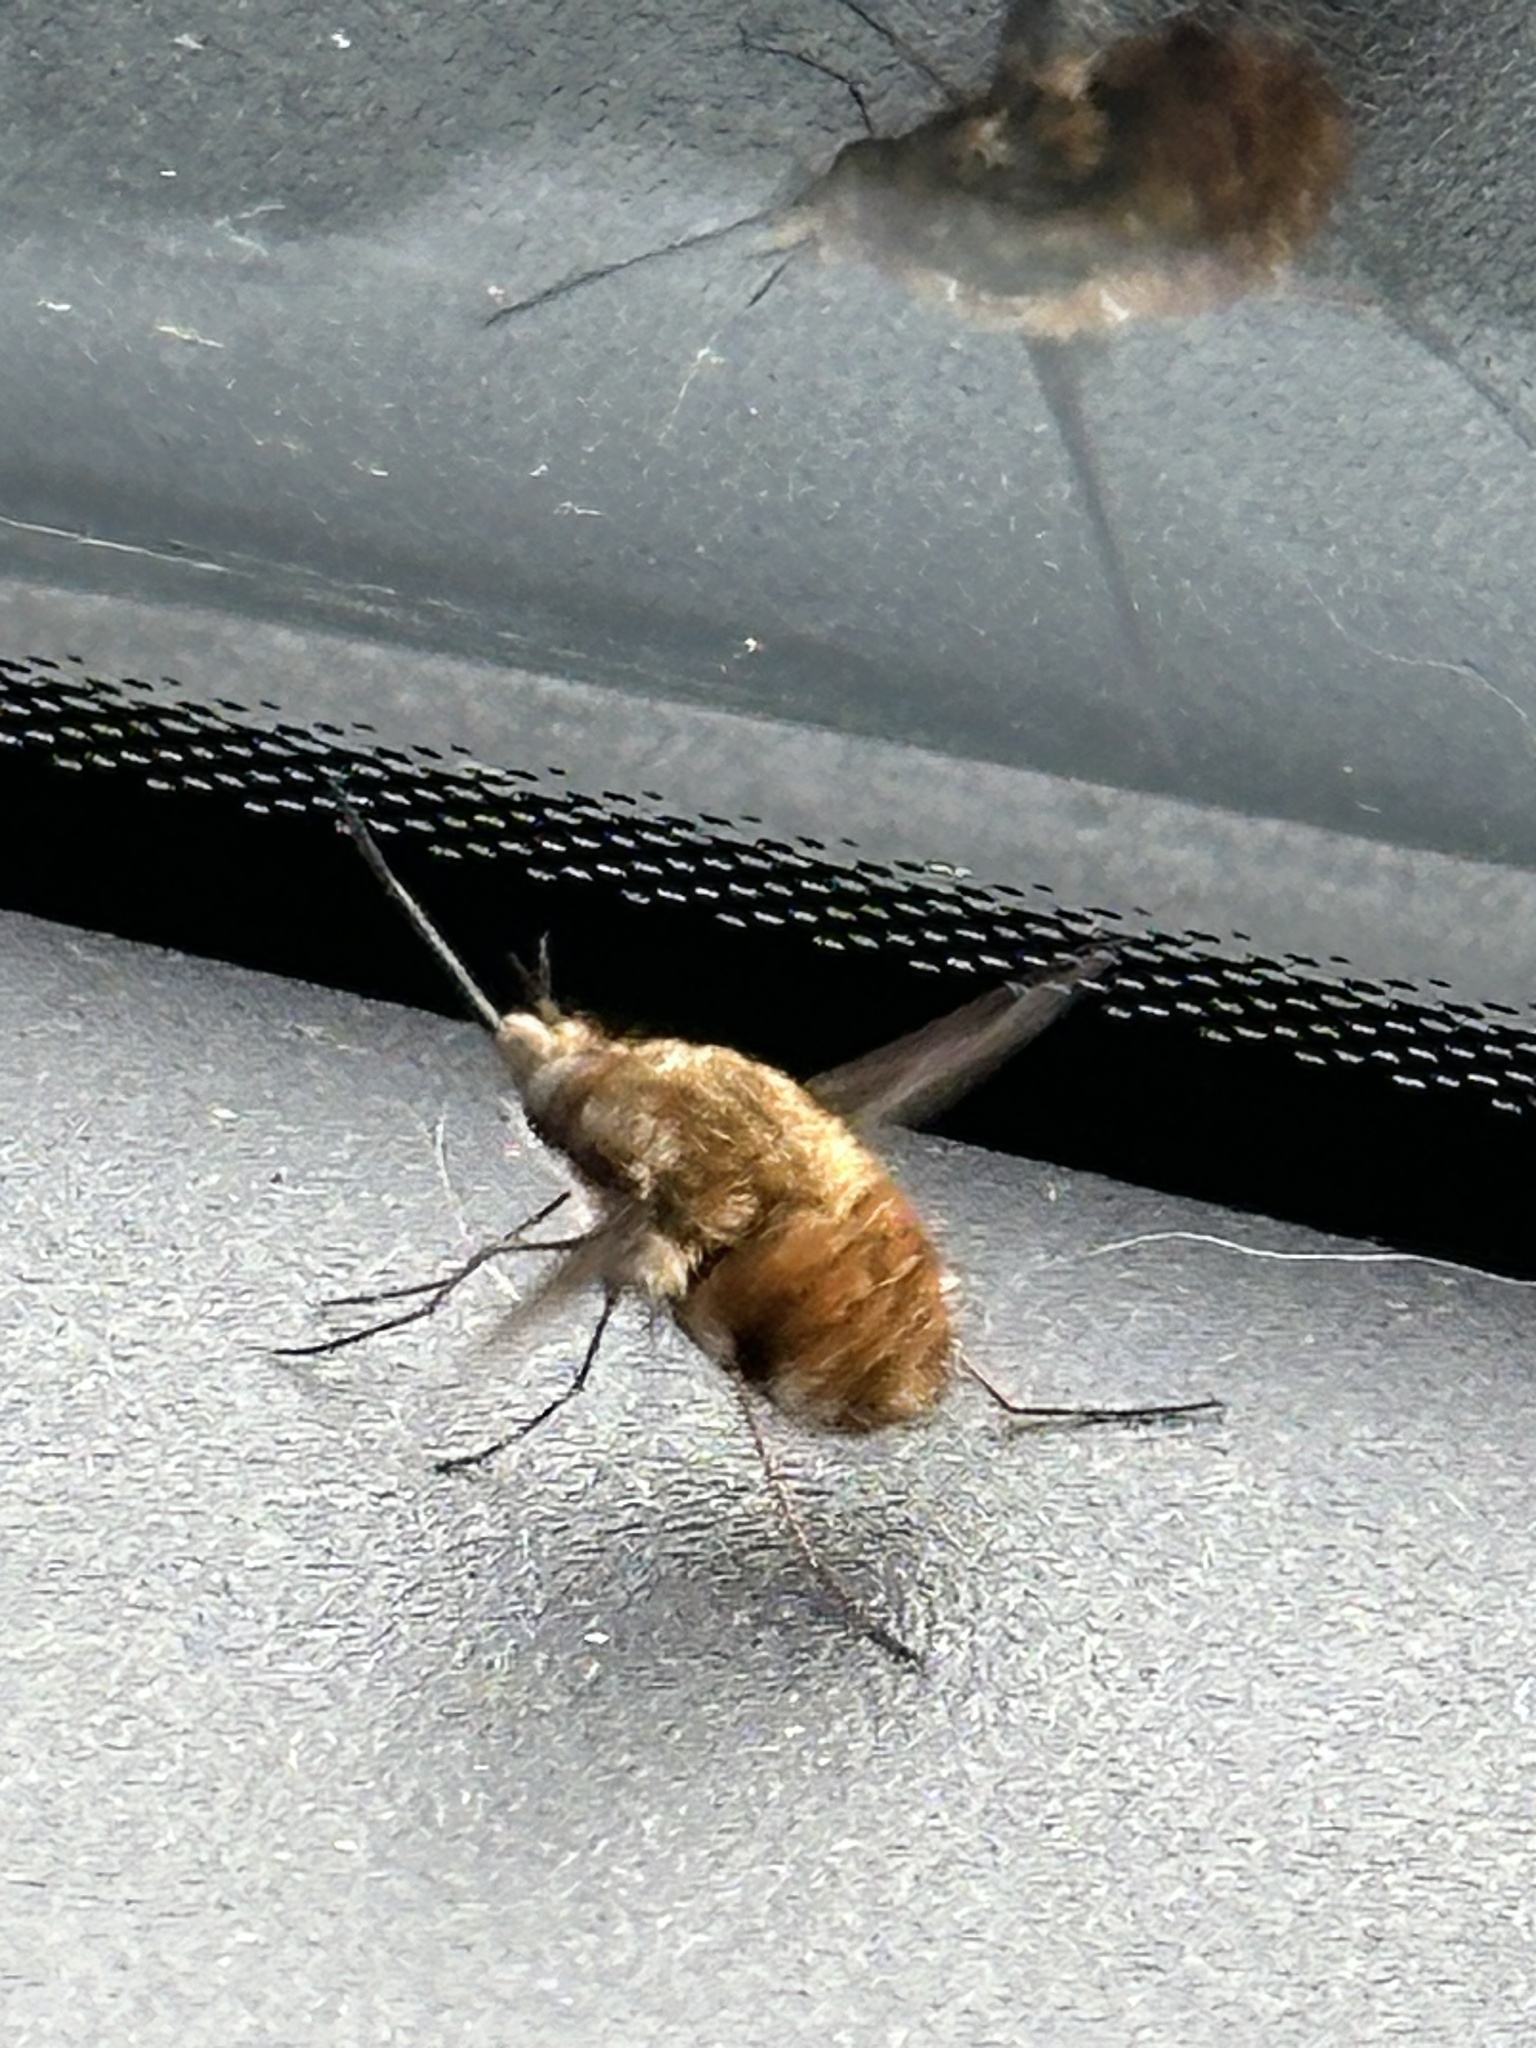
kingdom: Animalia
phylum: Arthropoda
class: Insecta
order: Diptera
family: Bombyliidae
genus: Bombylius
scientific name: Bombylius major
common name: Bee fly
